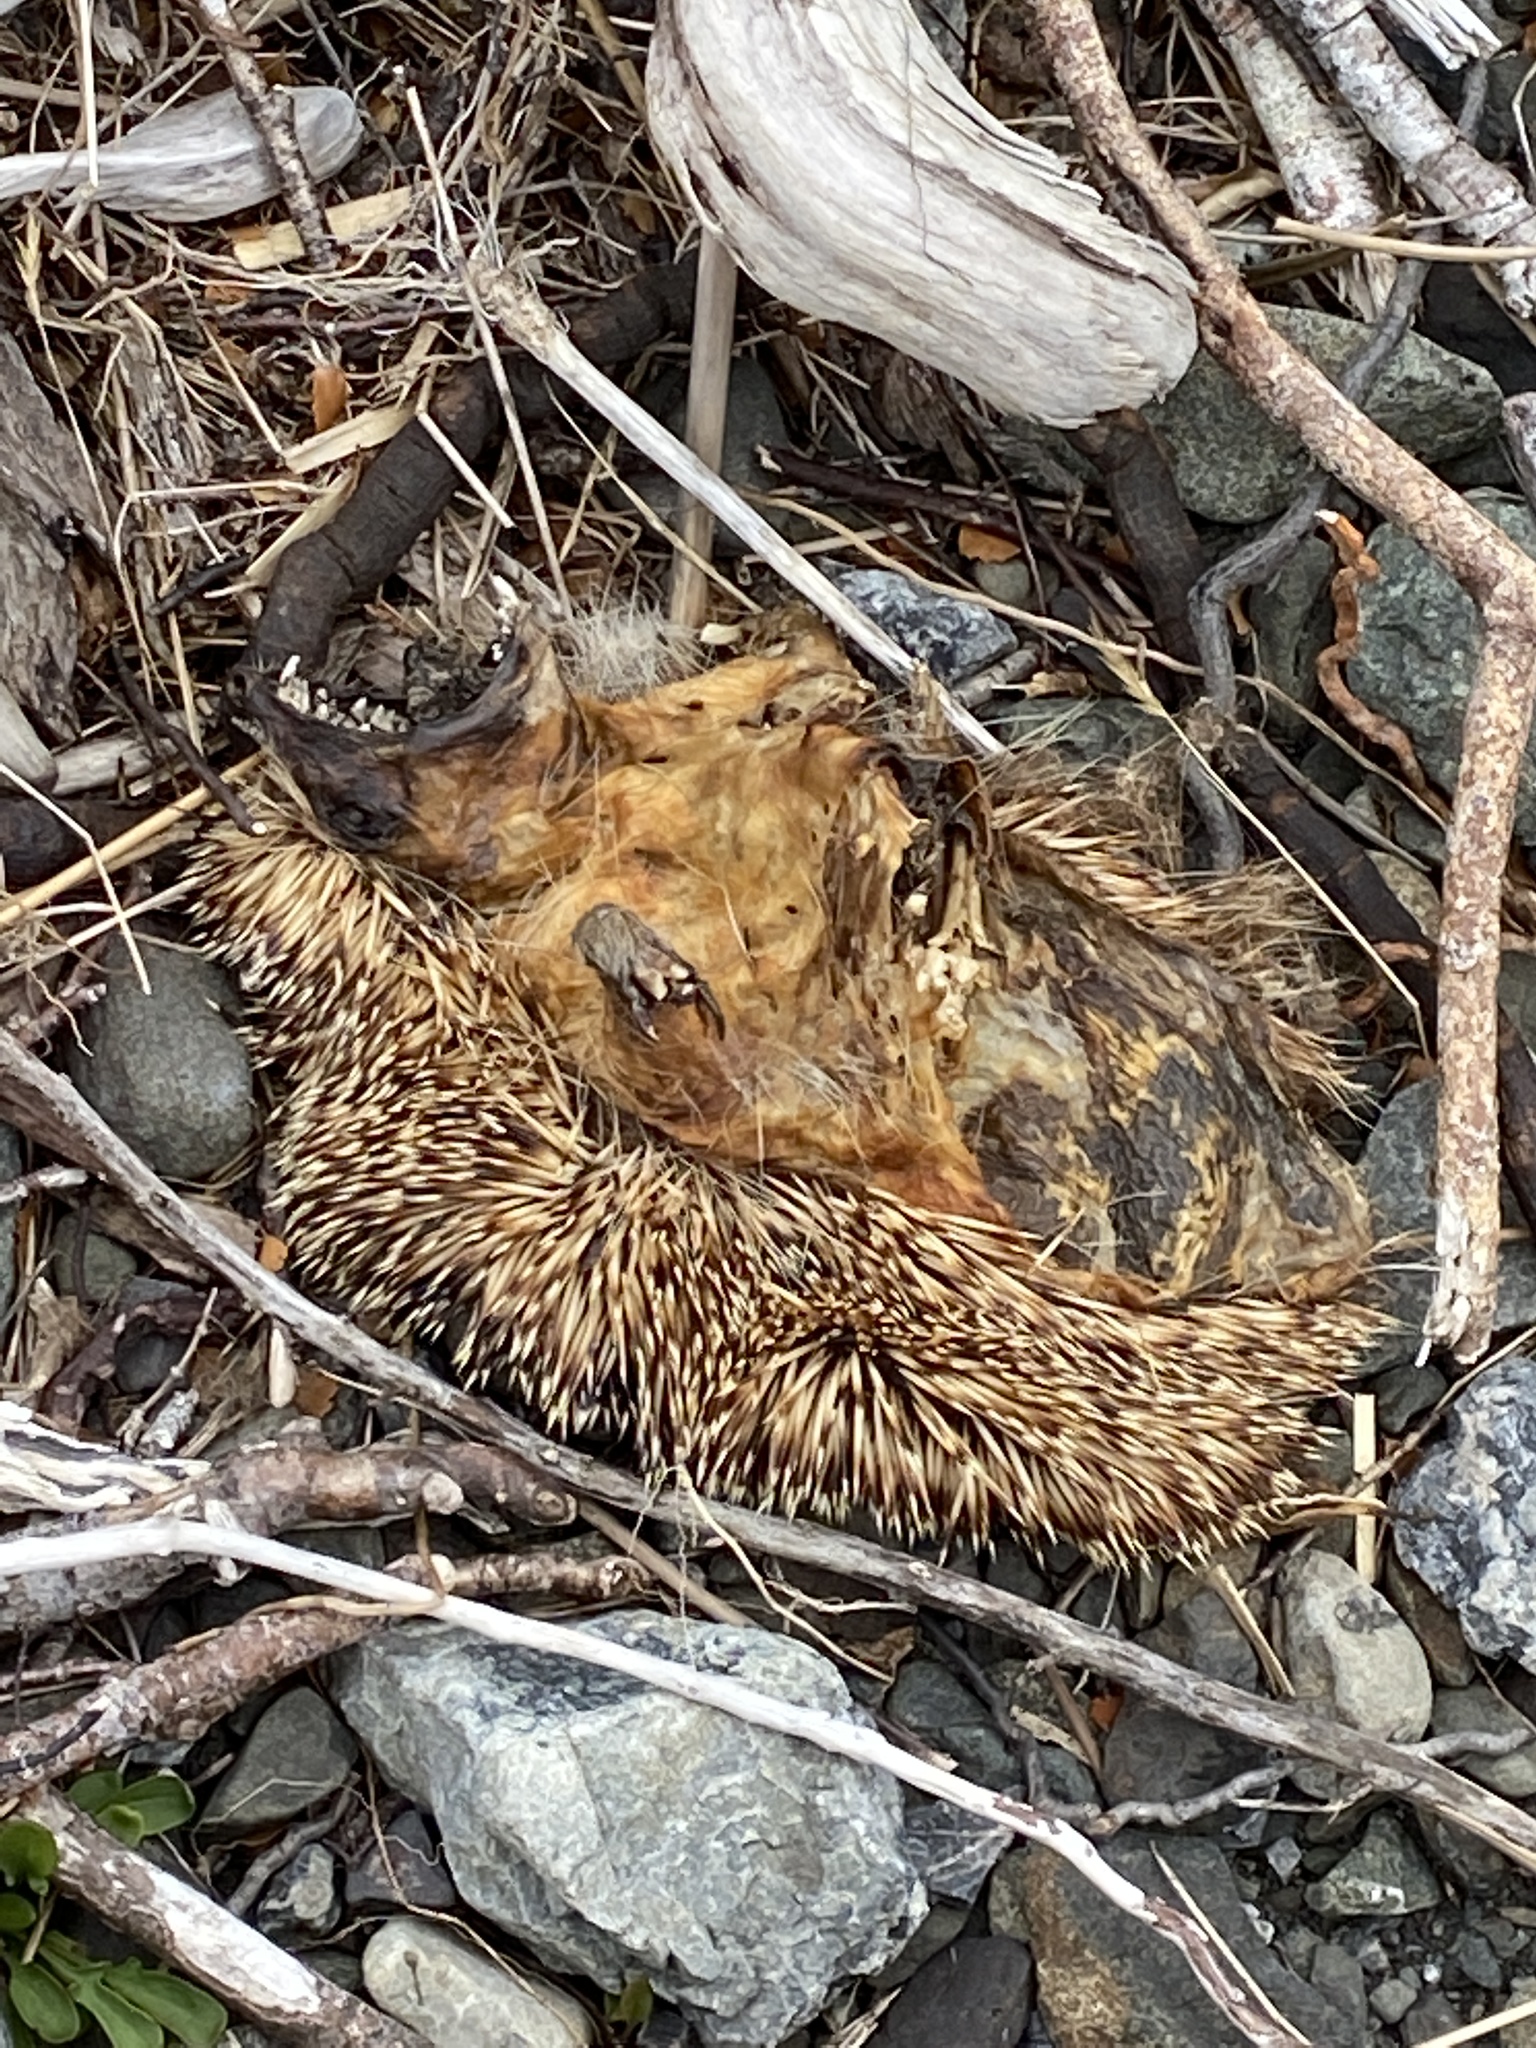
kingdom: Animalia
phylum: Chordata
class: Mammalia
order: Erinaceomorpha
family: Erinaceidae
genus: Erinaceus
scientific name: Erinaceus europaeus
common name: West european hedgehog
